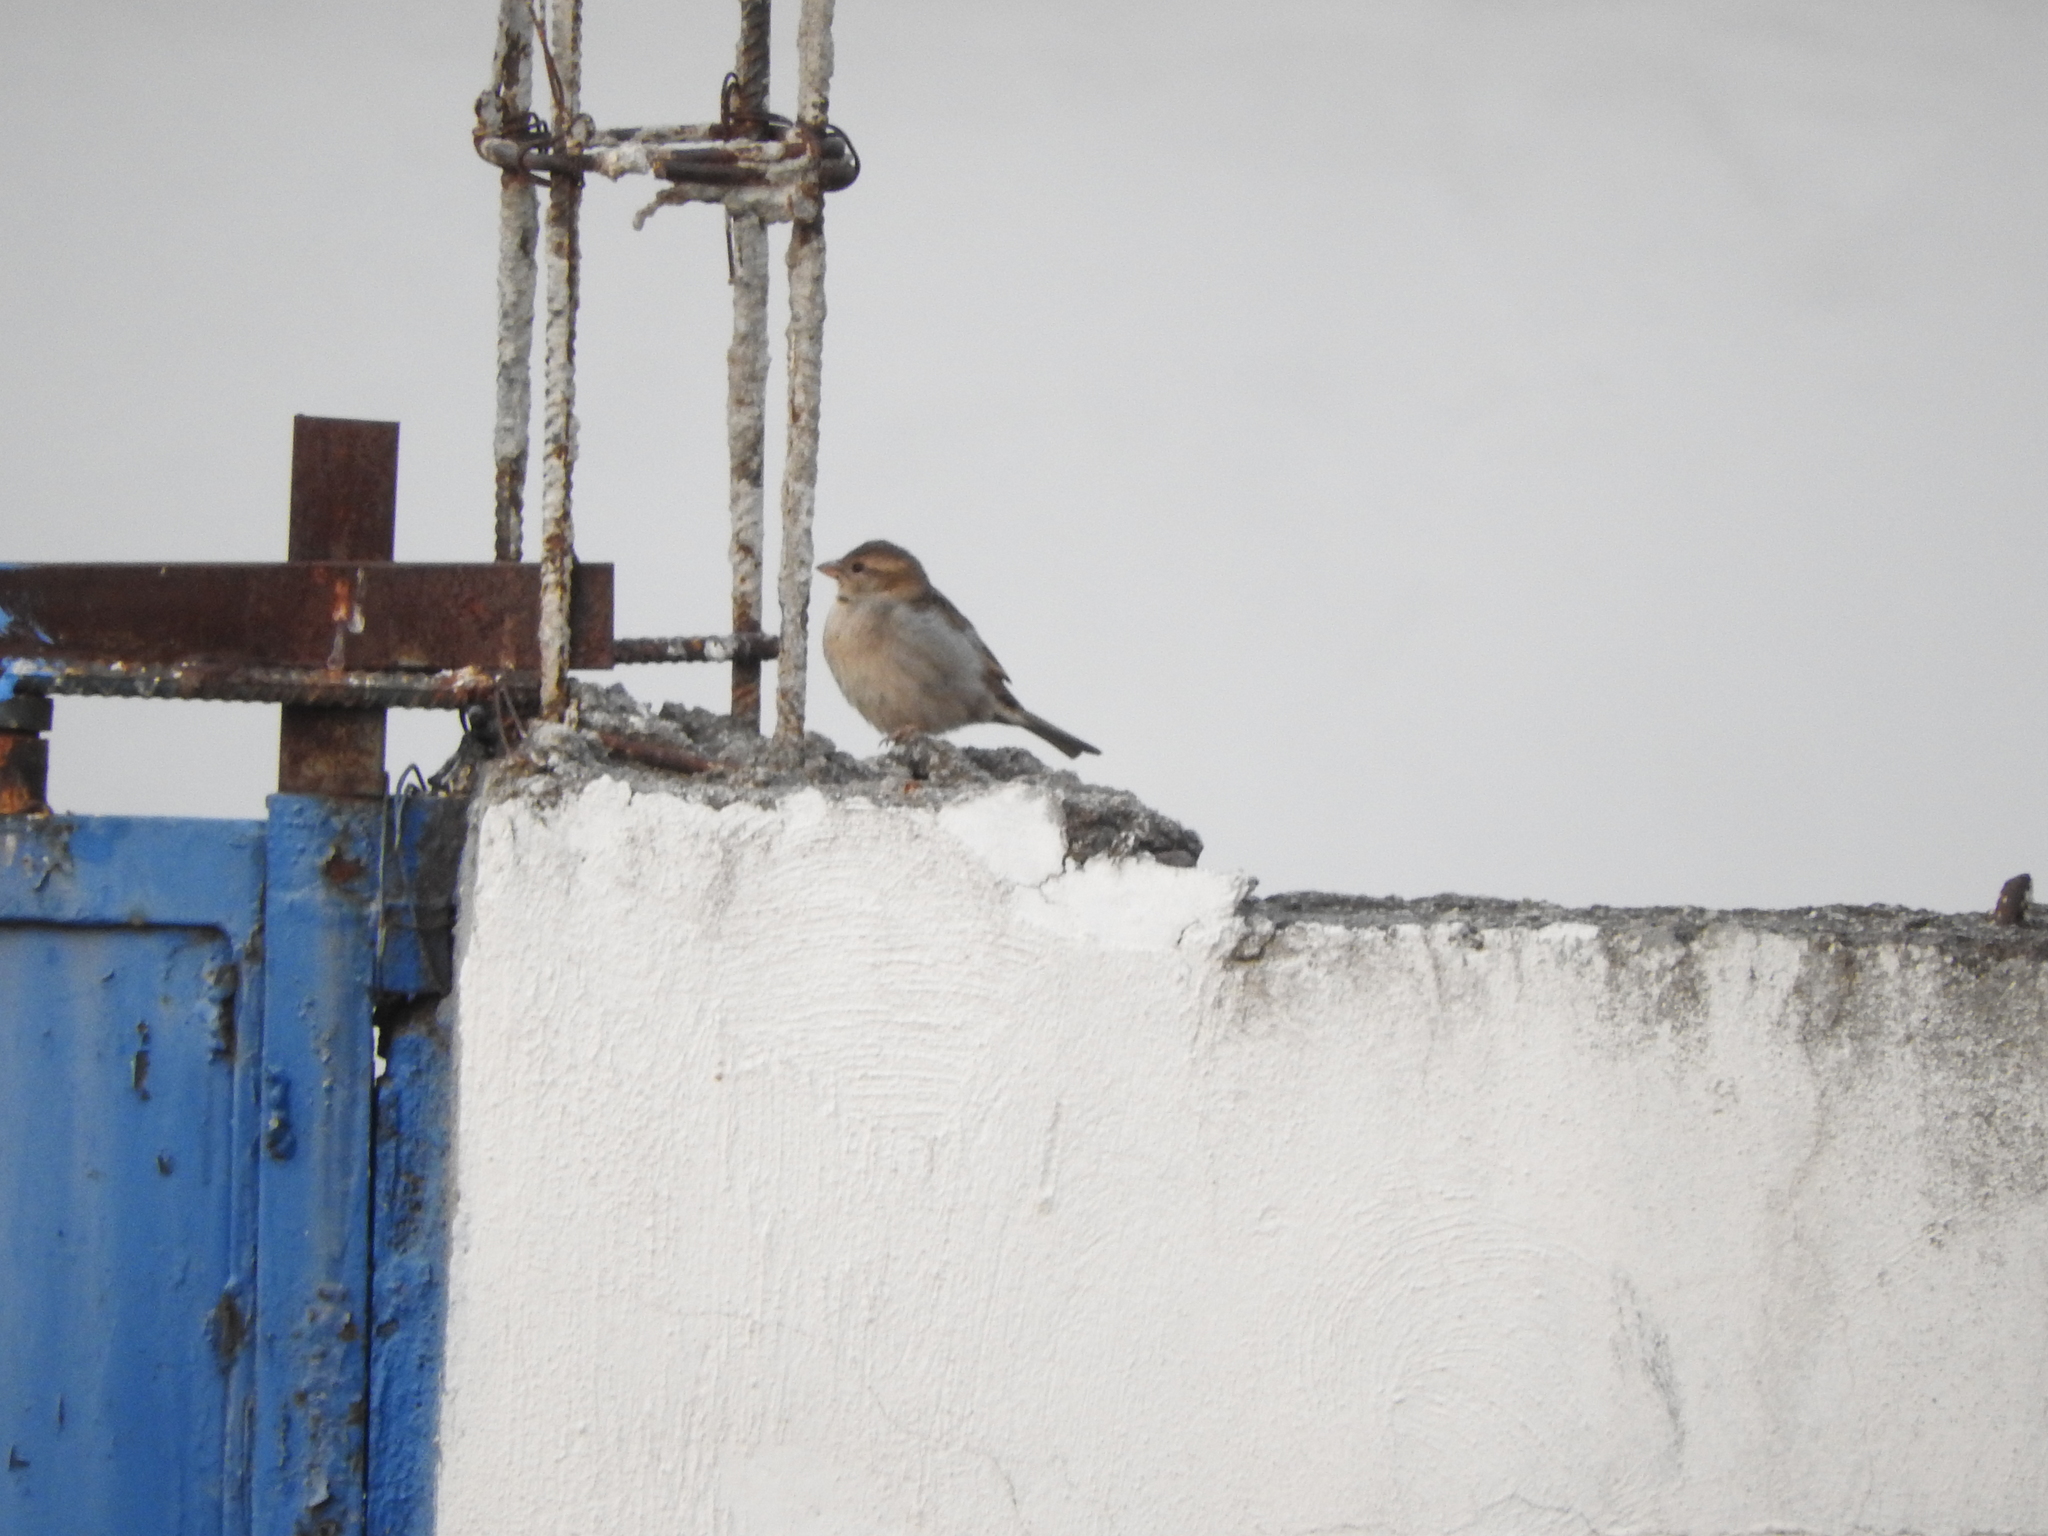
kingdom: Animalia
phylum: Chordata
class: Aves
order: Passeriformes
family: Passeridae
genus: Passer
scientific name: Passer domesticus
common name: House sparrow
